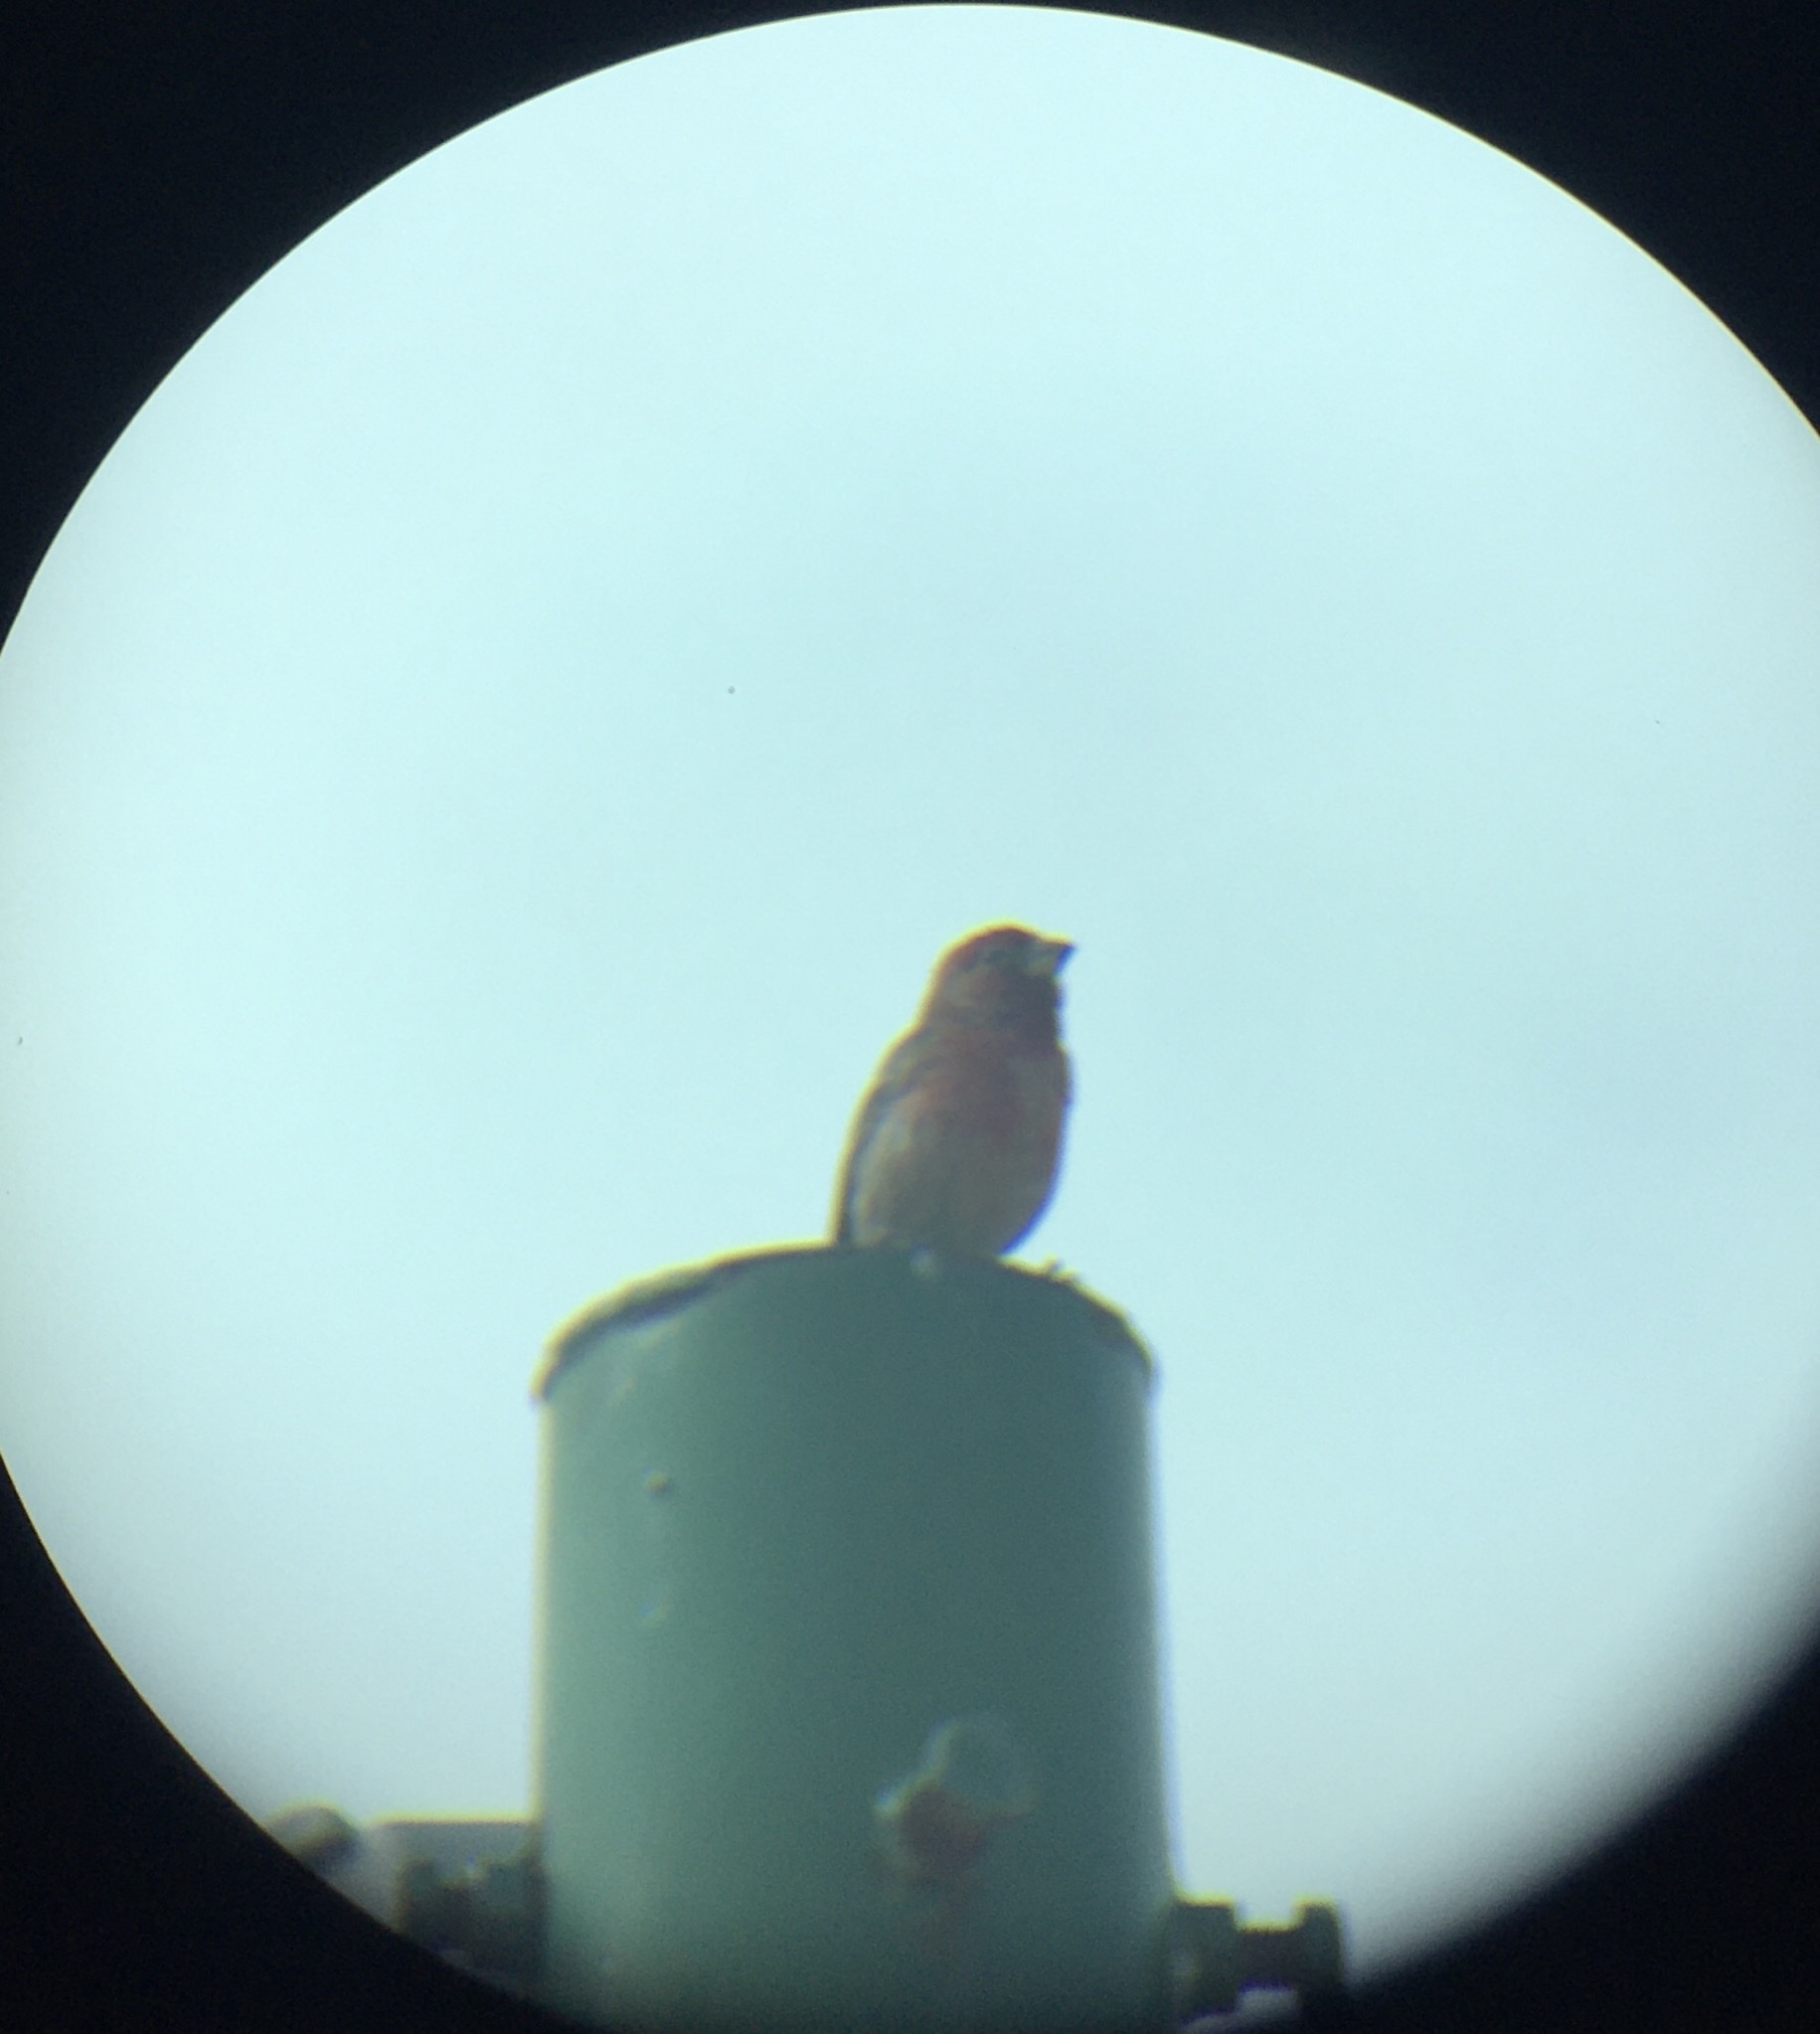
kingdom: Animalia
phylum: Chordata
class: Aves
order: Passeriformes
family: Fringillidae
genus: Haemorhous
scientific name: Haemorhous mexicanus
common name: House finch
